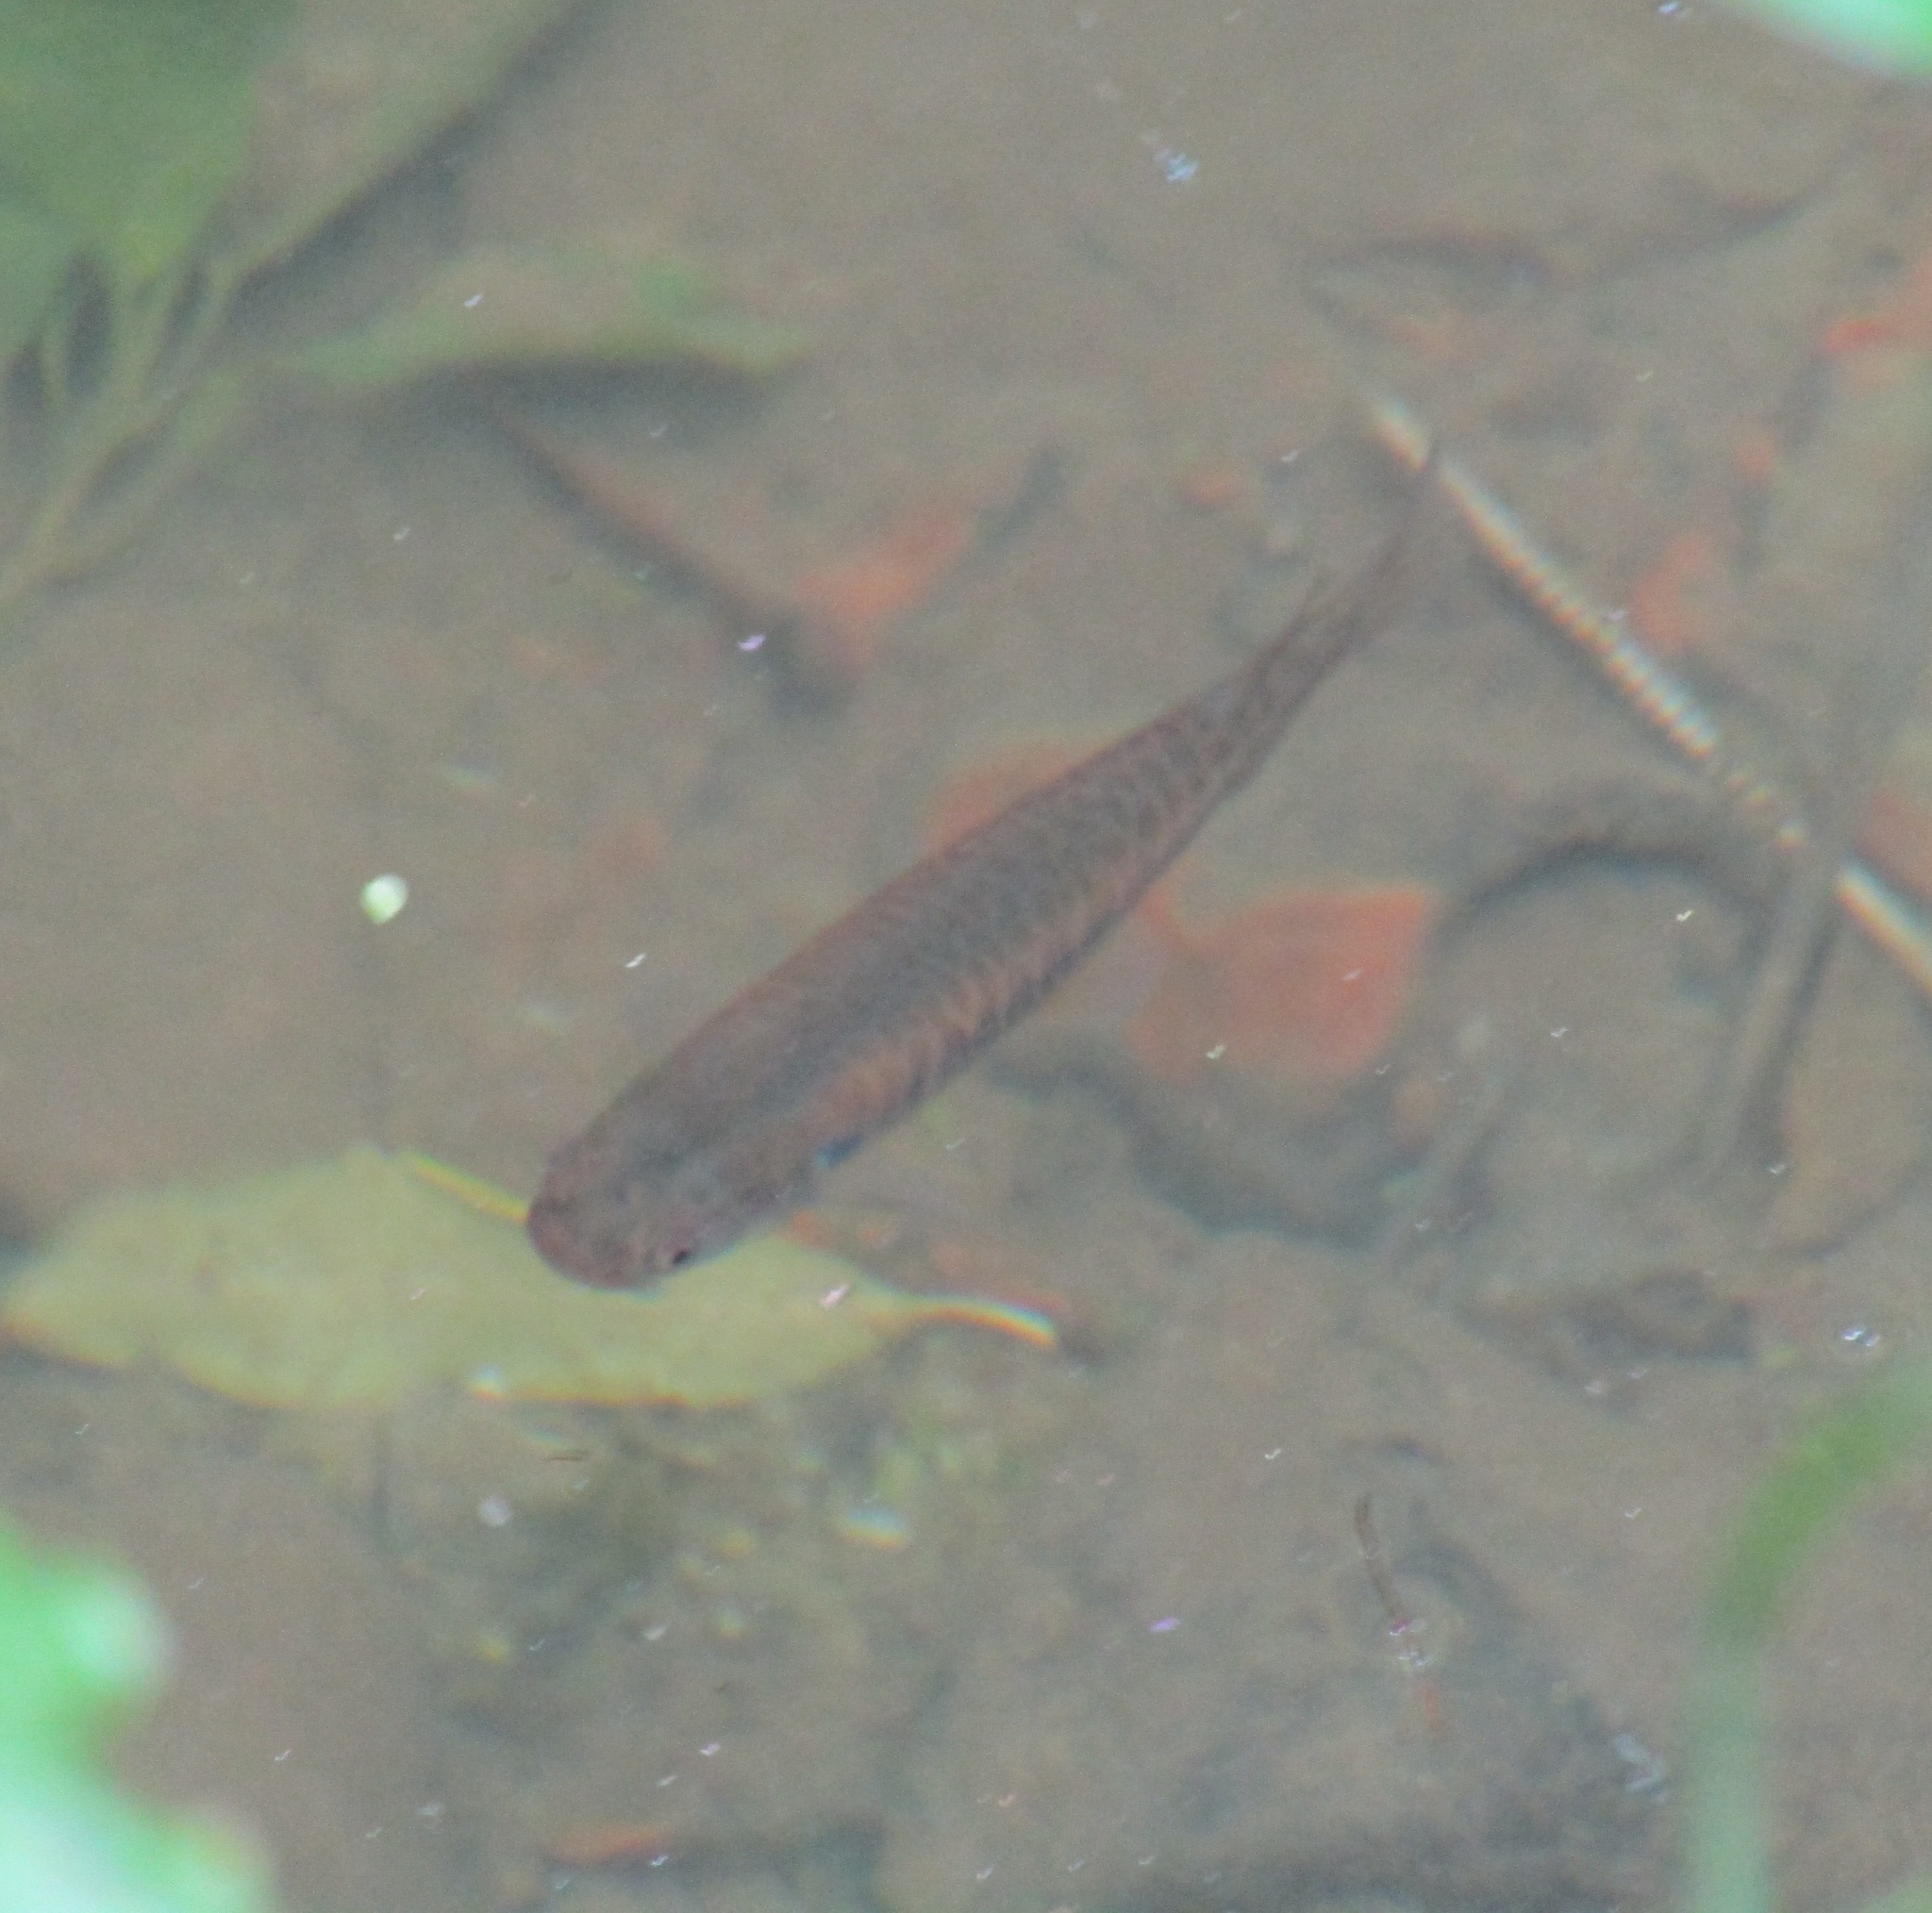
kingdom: Animalia
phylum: Chordata
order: Osmeriformes
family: Galaxiidae
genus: Galaxias
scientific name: Galaxias fasciatus
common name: Banded kokopu
